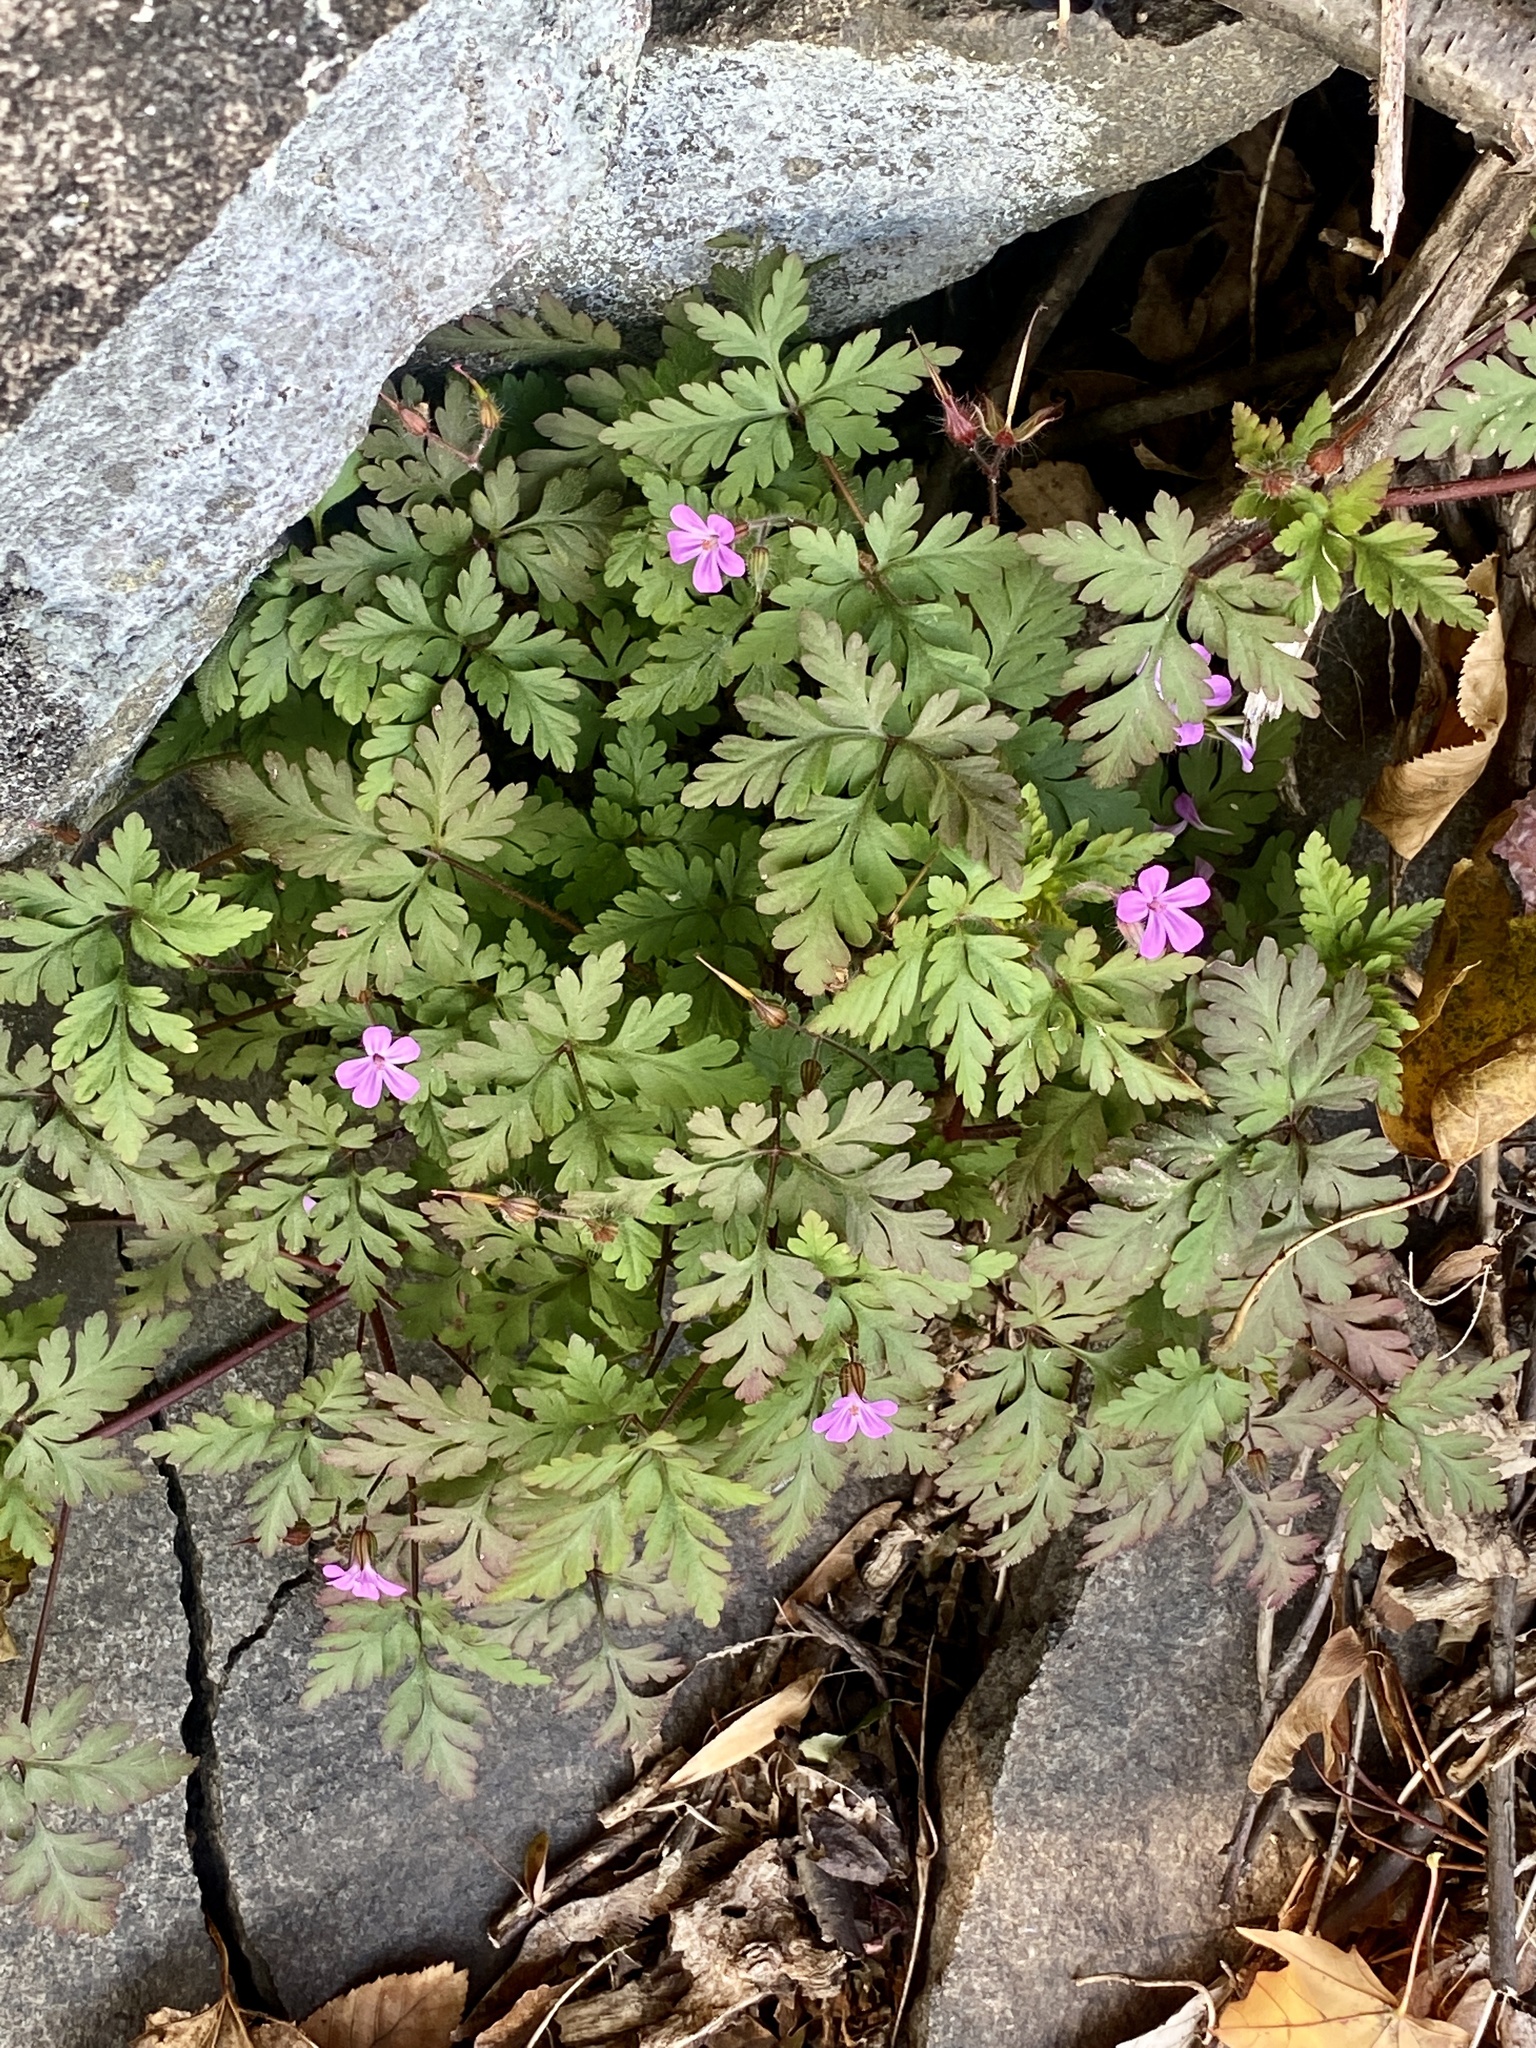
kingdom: Plantae
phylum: Tracheophyta
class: Magnoliopsida
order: Geraniales
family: Geraniaceae
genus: Geranium
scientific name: Geranium robertianum
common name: Herb-robert
